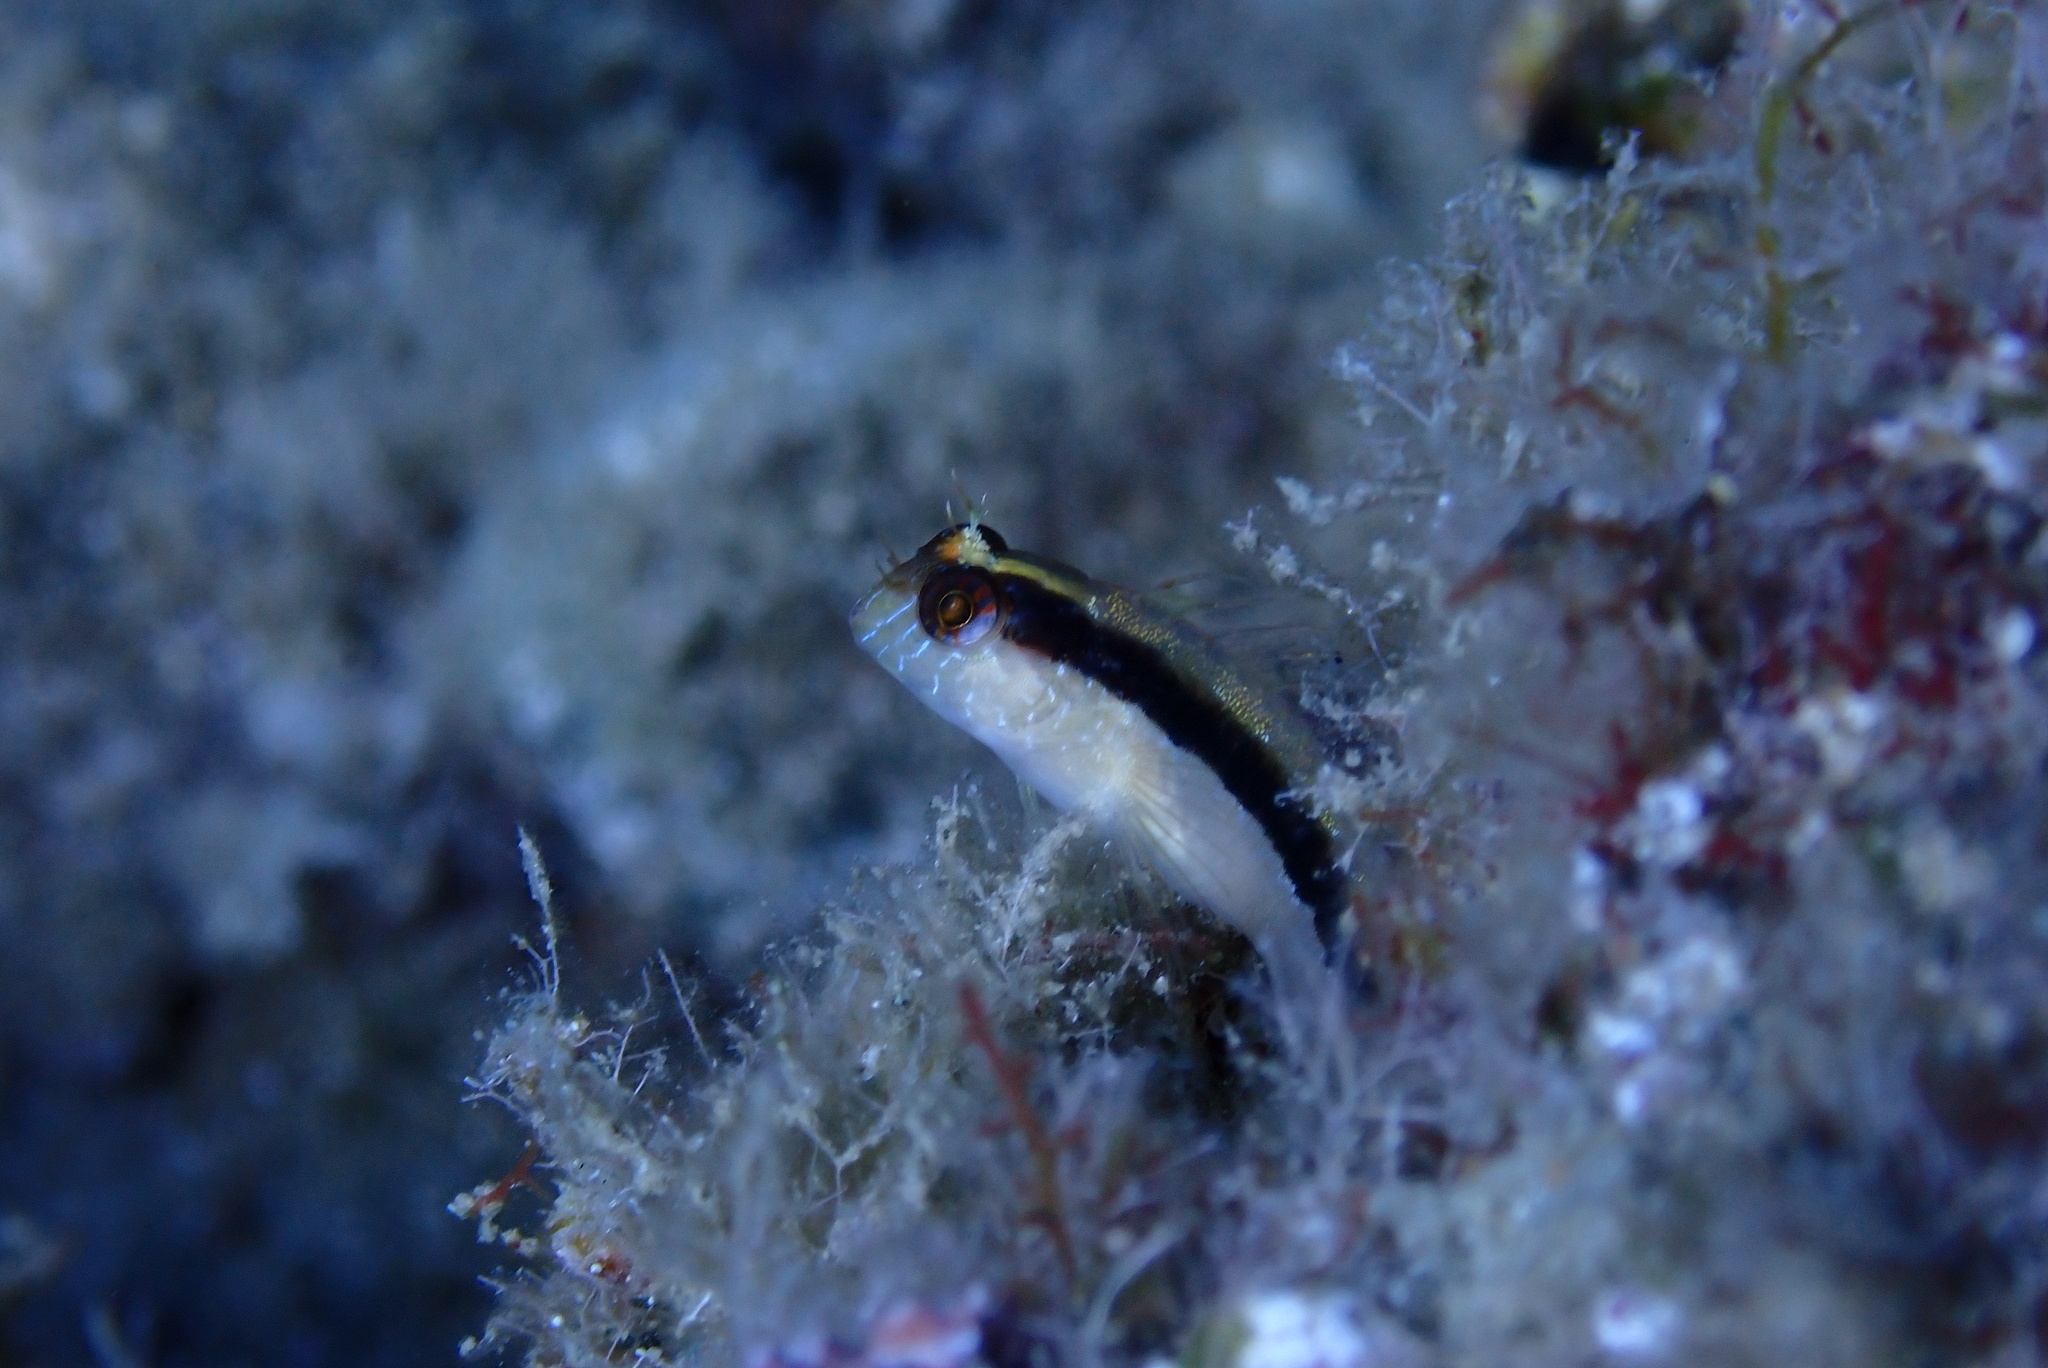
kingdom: Animalia
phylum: Chordata
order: Perciformes
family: Blenniidae
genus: Parablennius
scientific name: Parablennius rouxi
